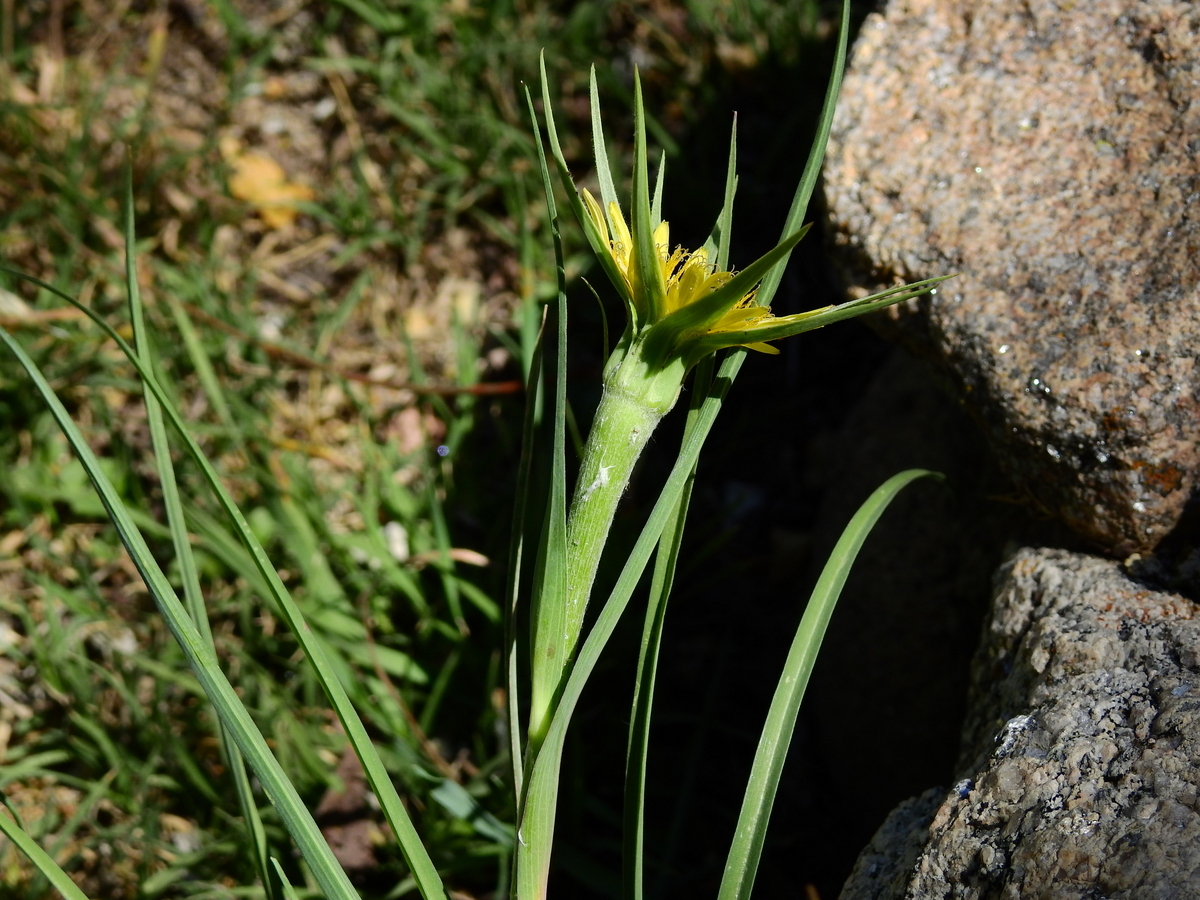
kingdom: Plantae
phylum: Tracheophyta
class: Magnoliopsida
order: Asterales
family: Asteraceae
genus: Tragopogon
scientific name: Tragopogon dubius
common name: Yellow salsify
